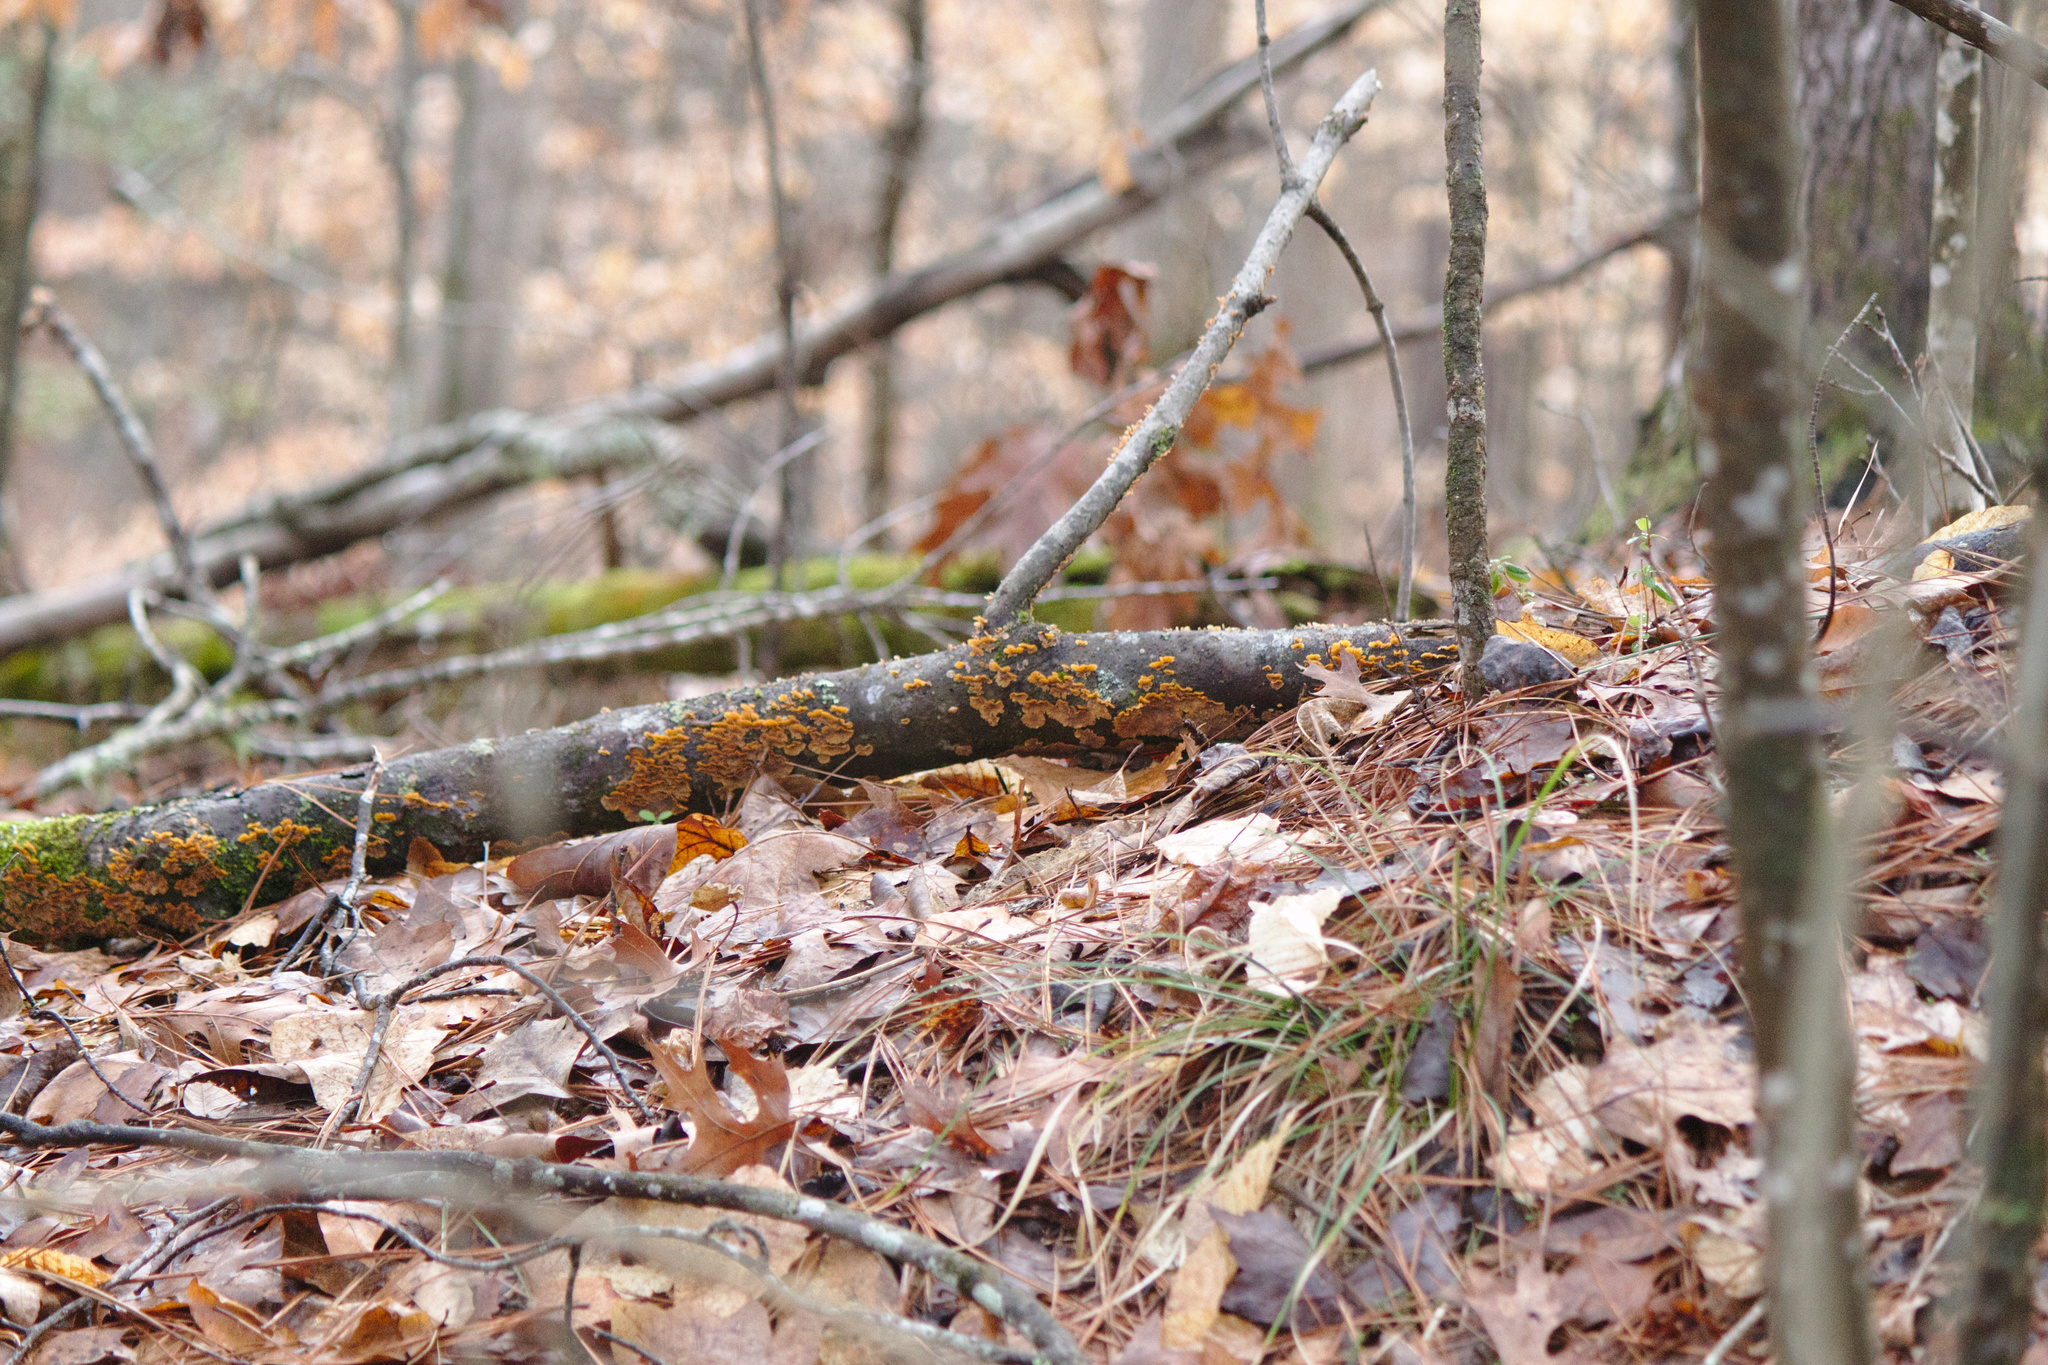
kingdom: Fungi
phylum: Basidiomycota
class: Agaricomycetes
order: Russulales
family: Stereaceae
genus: Stereum
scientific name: Stereum complicatum
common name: Crowded parchment
